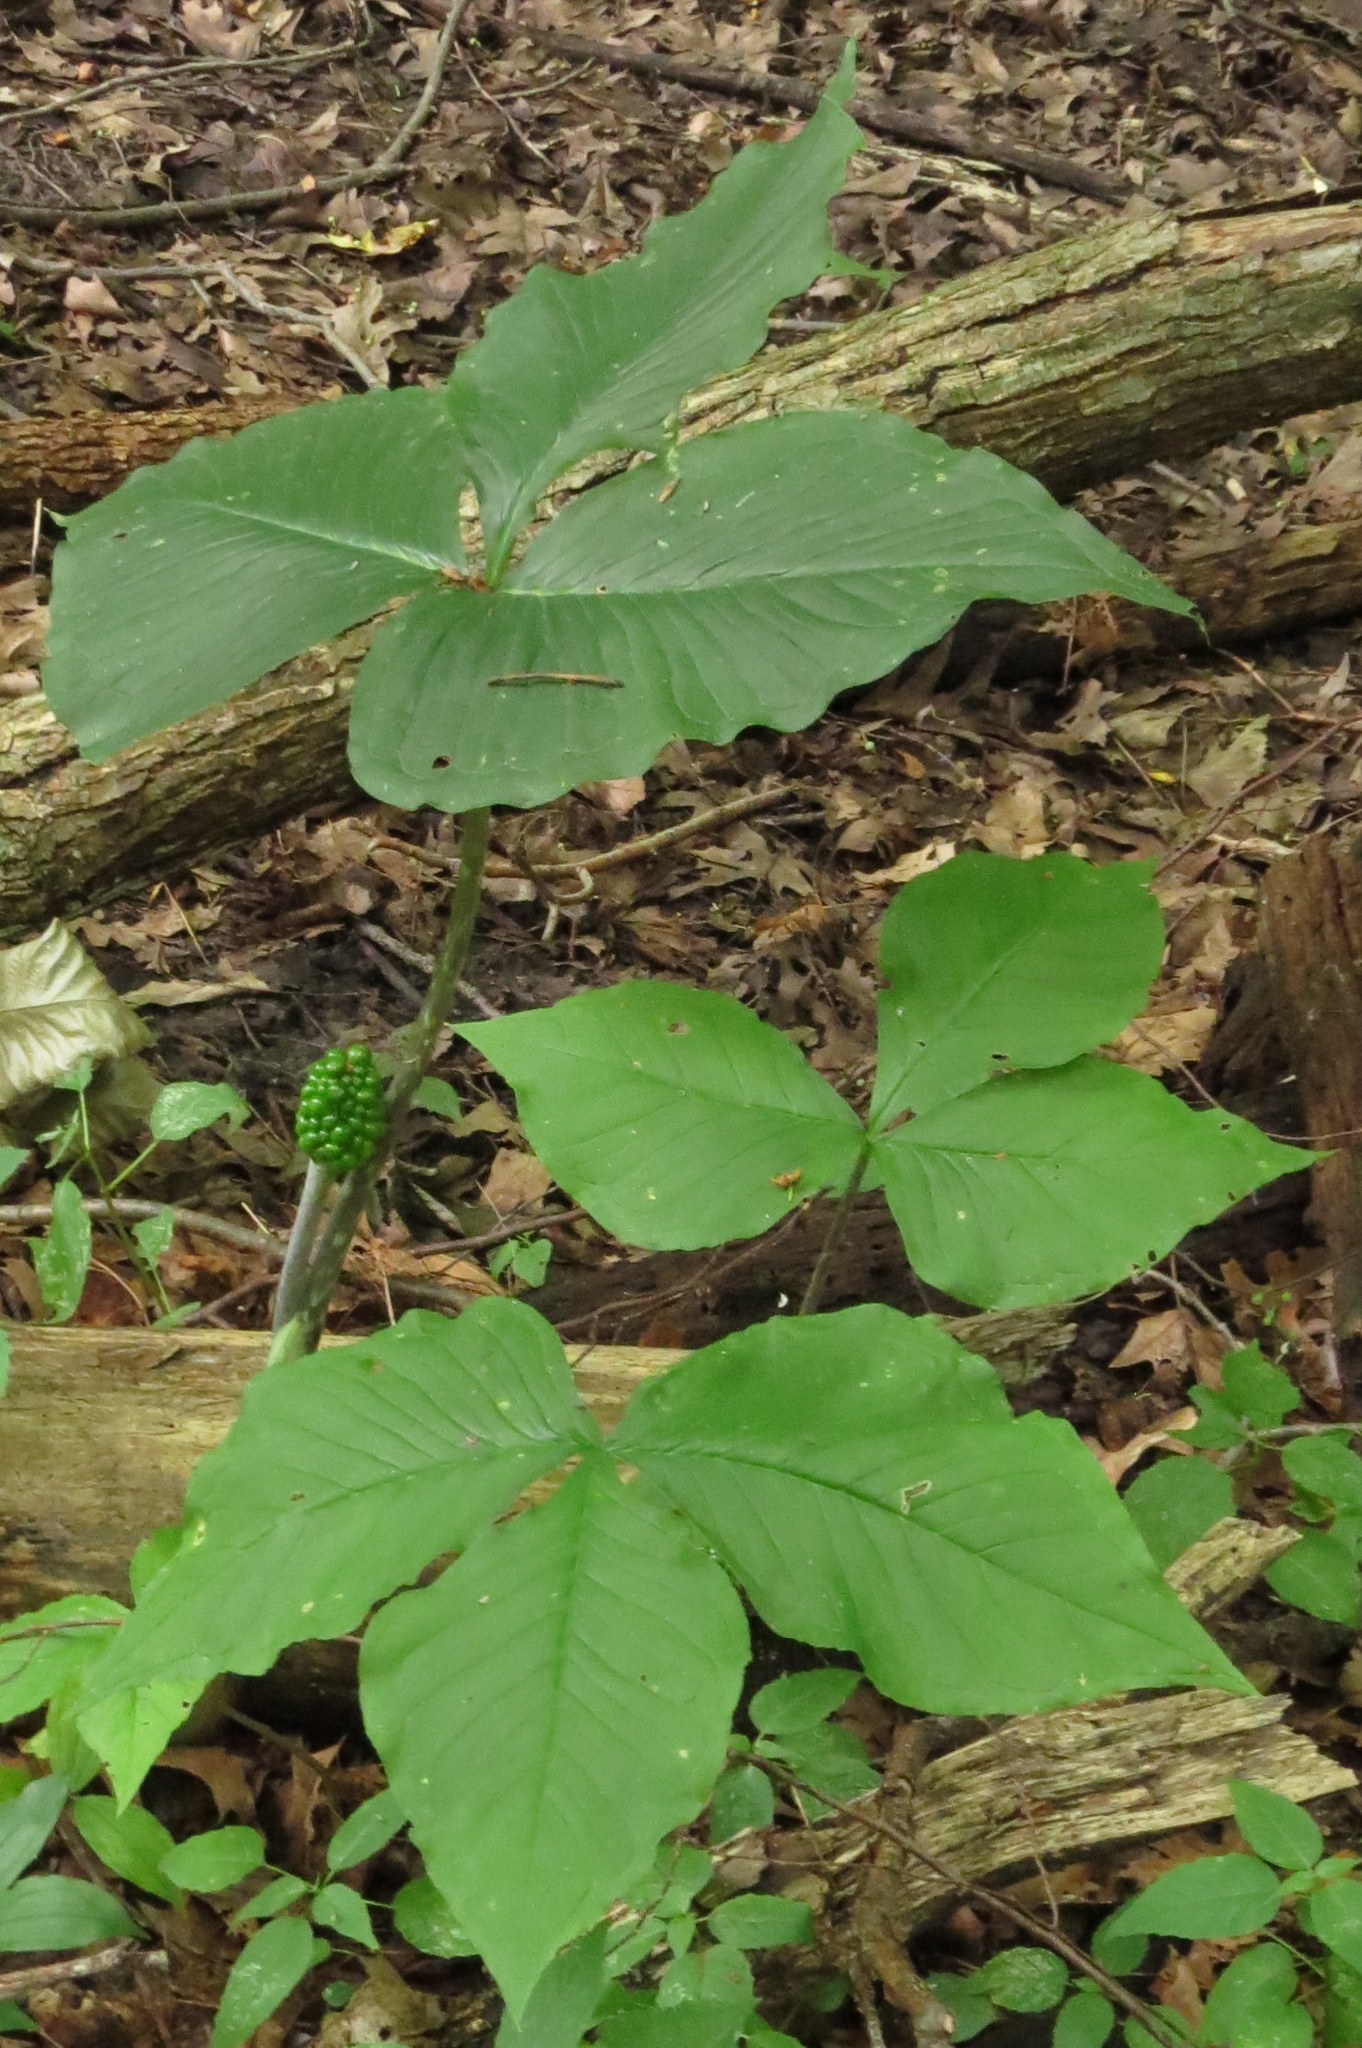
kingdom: Plantae
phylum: Tracheophyta
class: Liliopsida
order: Alismatales
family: Araceae
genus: Arisaema
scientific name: Arisaema triphyllum
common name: Jack-in-the-pulpit
